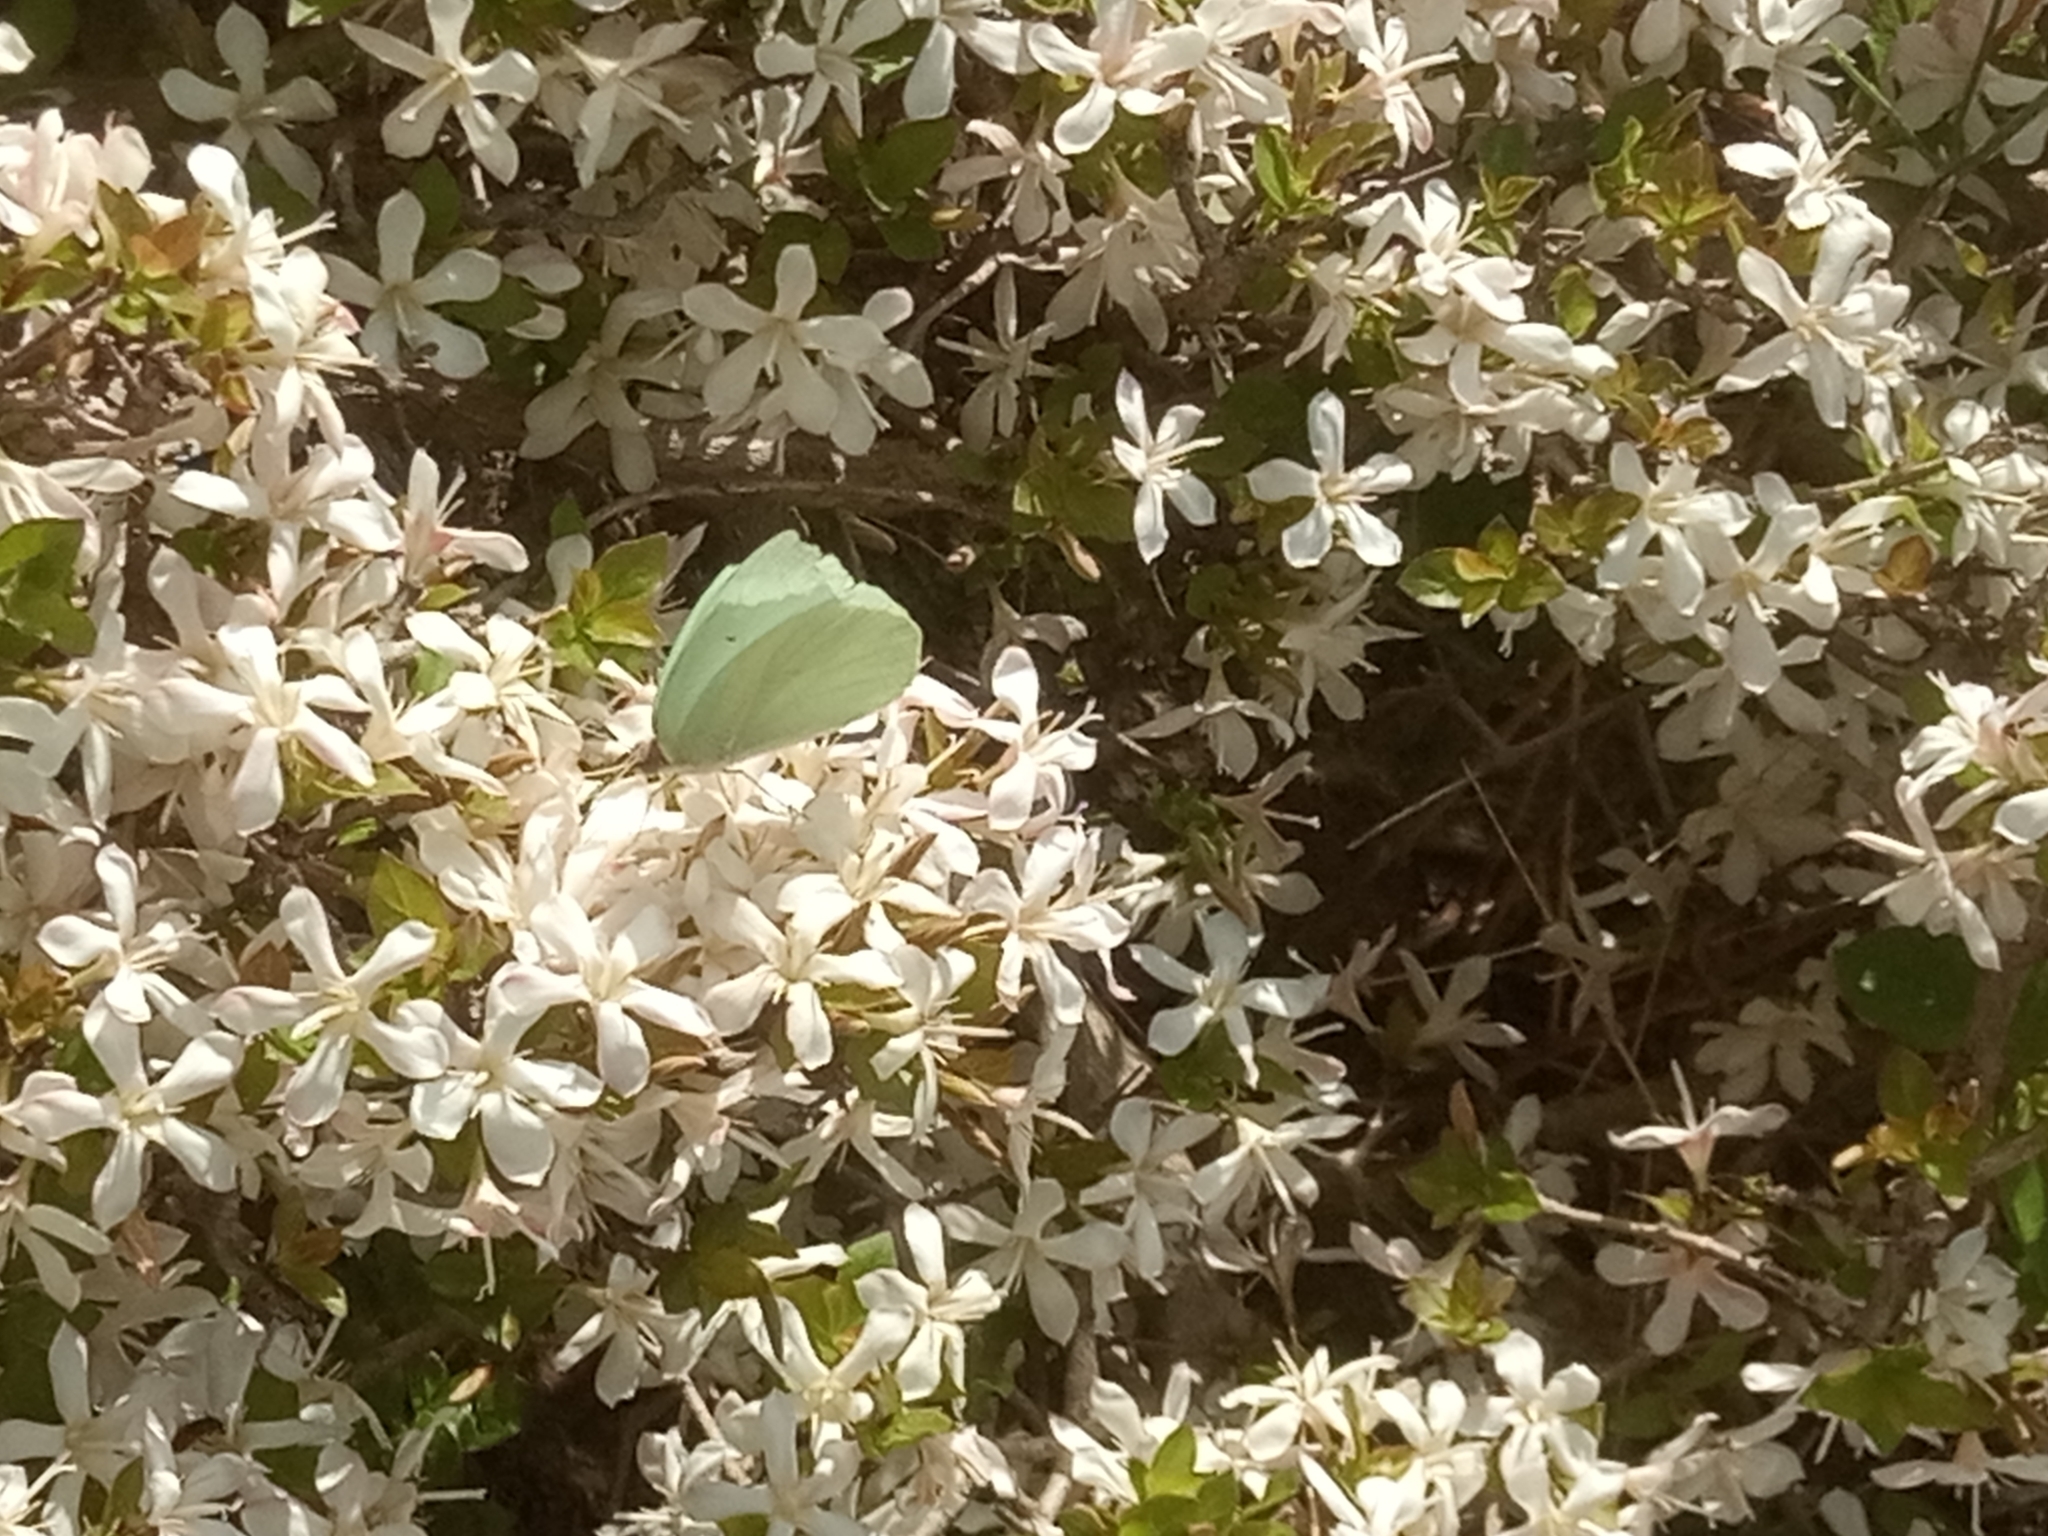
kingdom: Animalia
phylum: Arthropoda
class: Insecta
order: Lepidoptera
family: Pieridae
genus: Catopsilia
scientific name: Catopsilia florella
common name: African migrant
